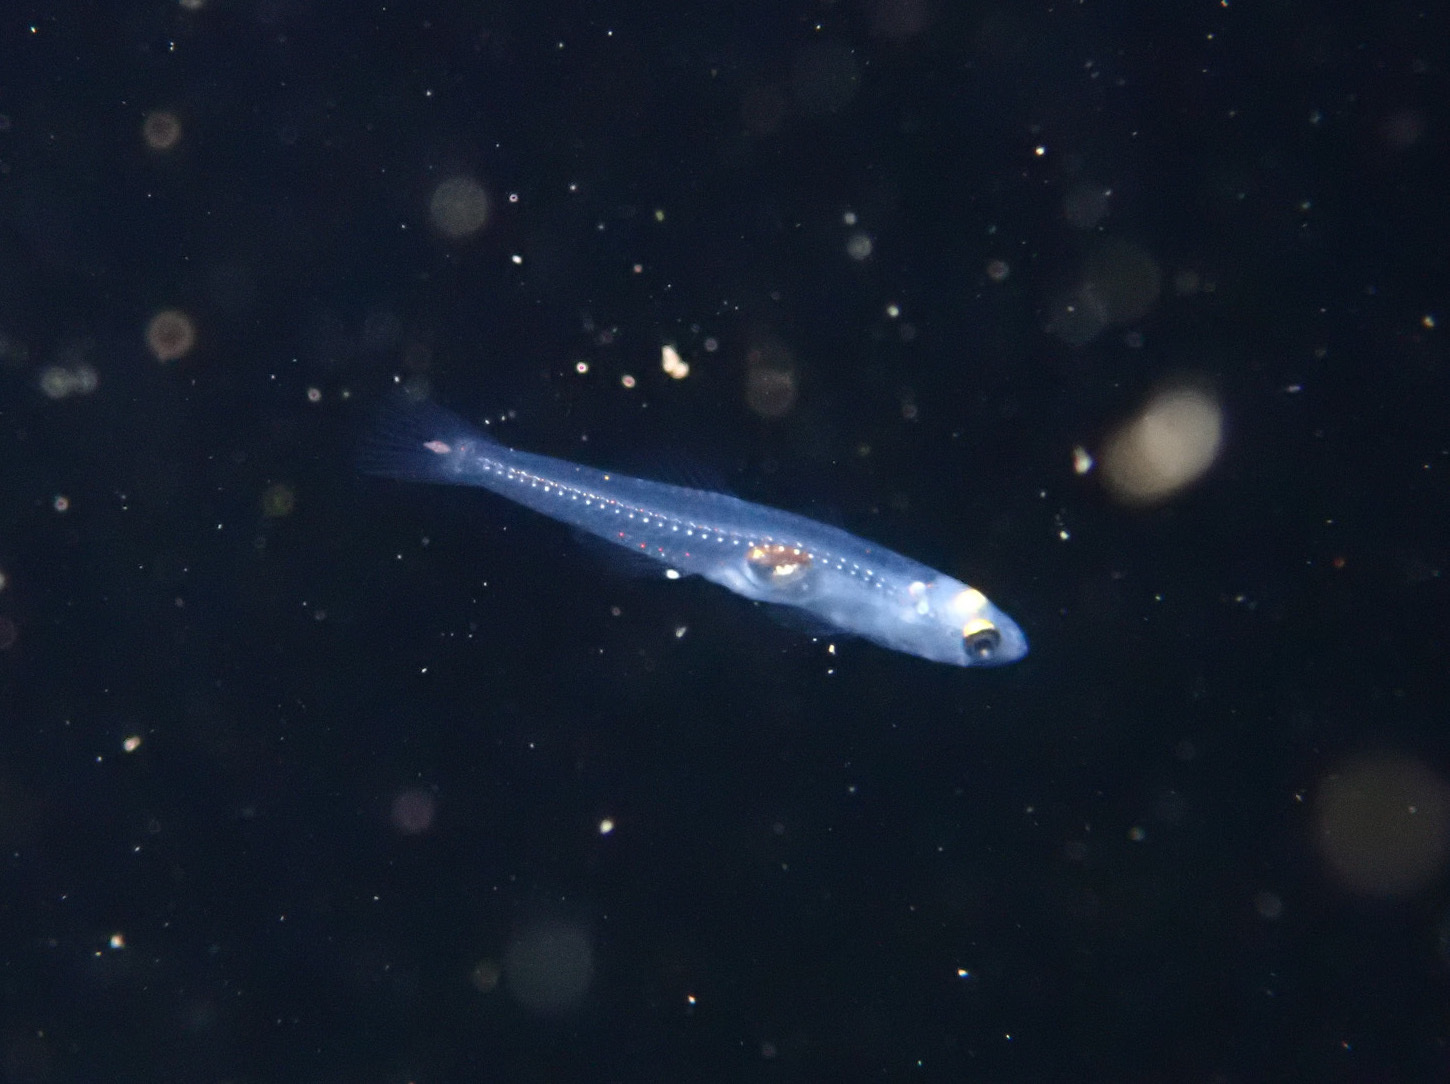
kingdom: Animalia
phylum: Chordata
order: Perciformes
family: Gobiidae
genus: Aphia
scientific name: Aphia minuta
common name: Transparent goby
